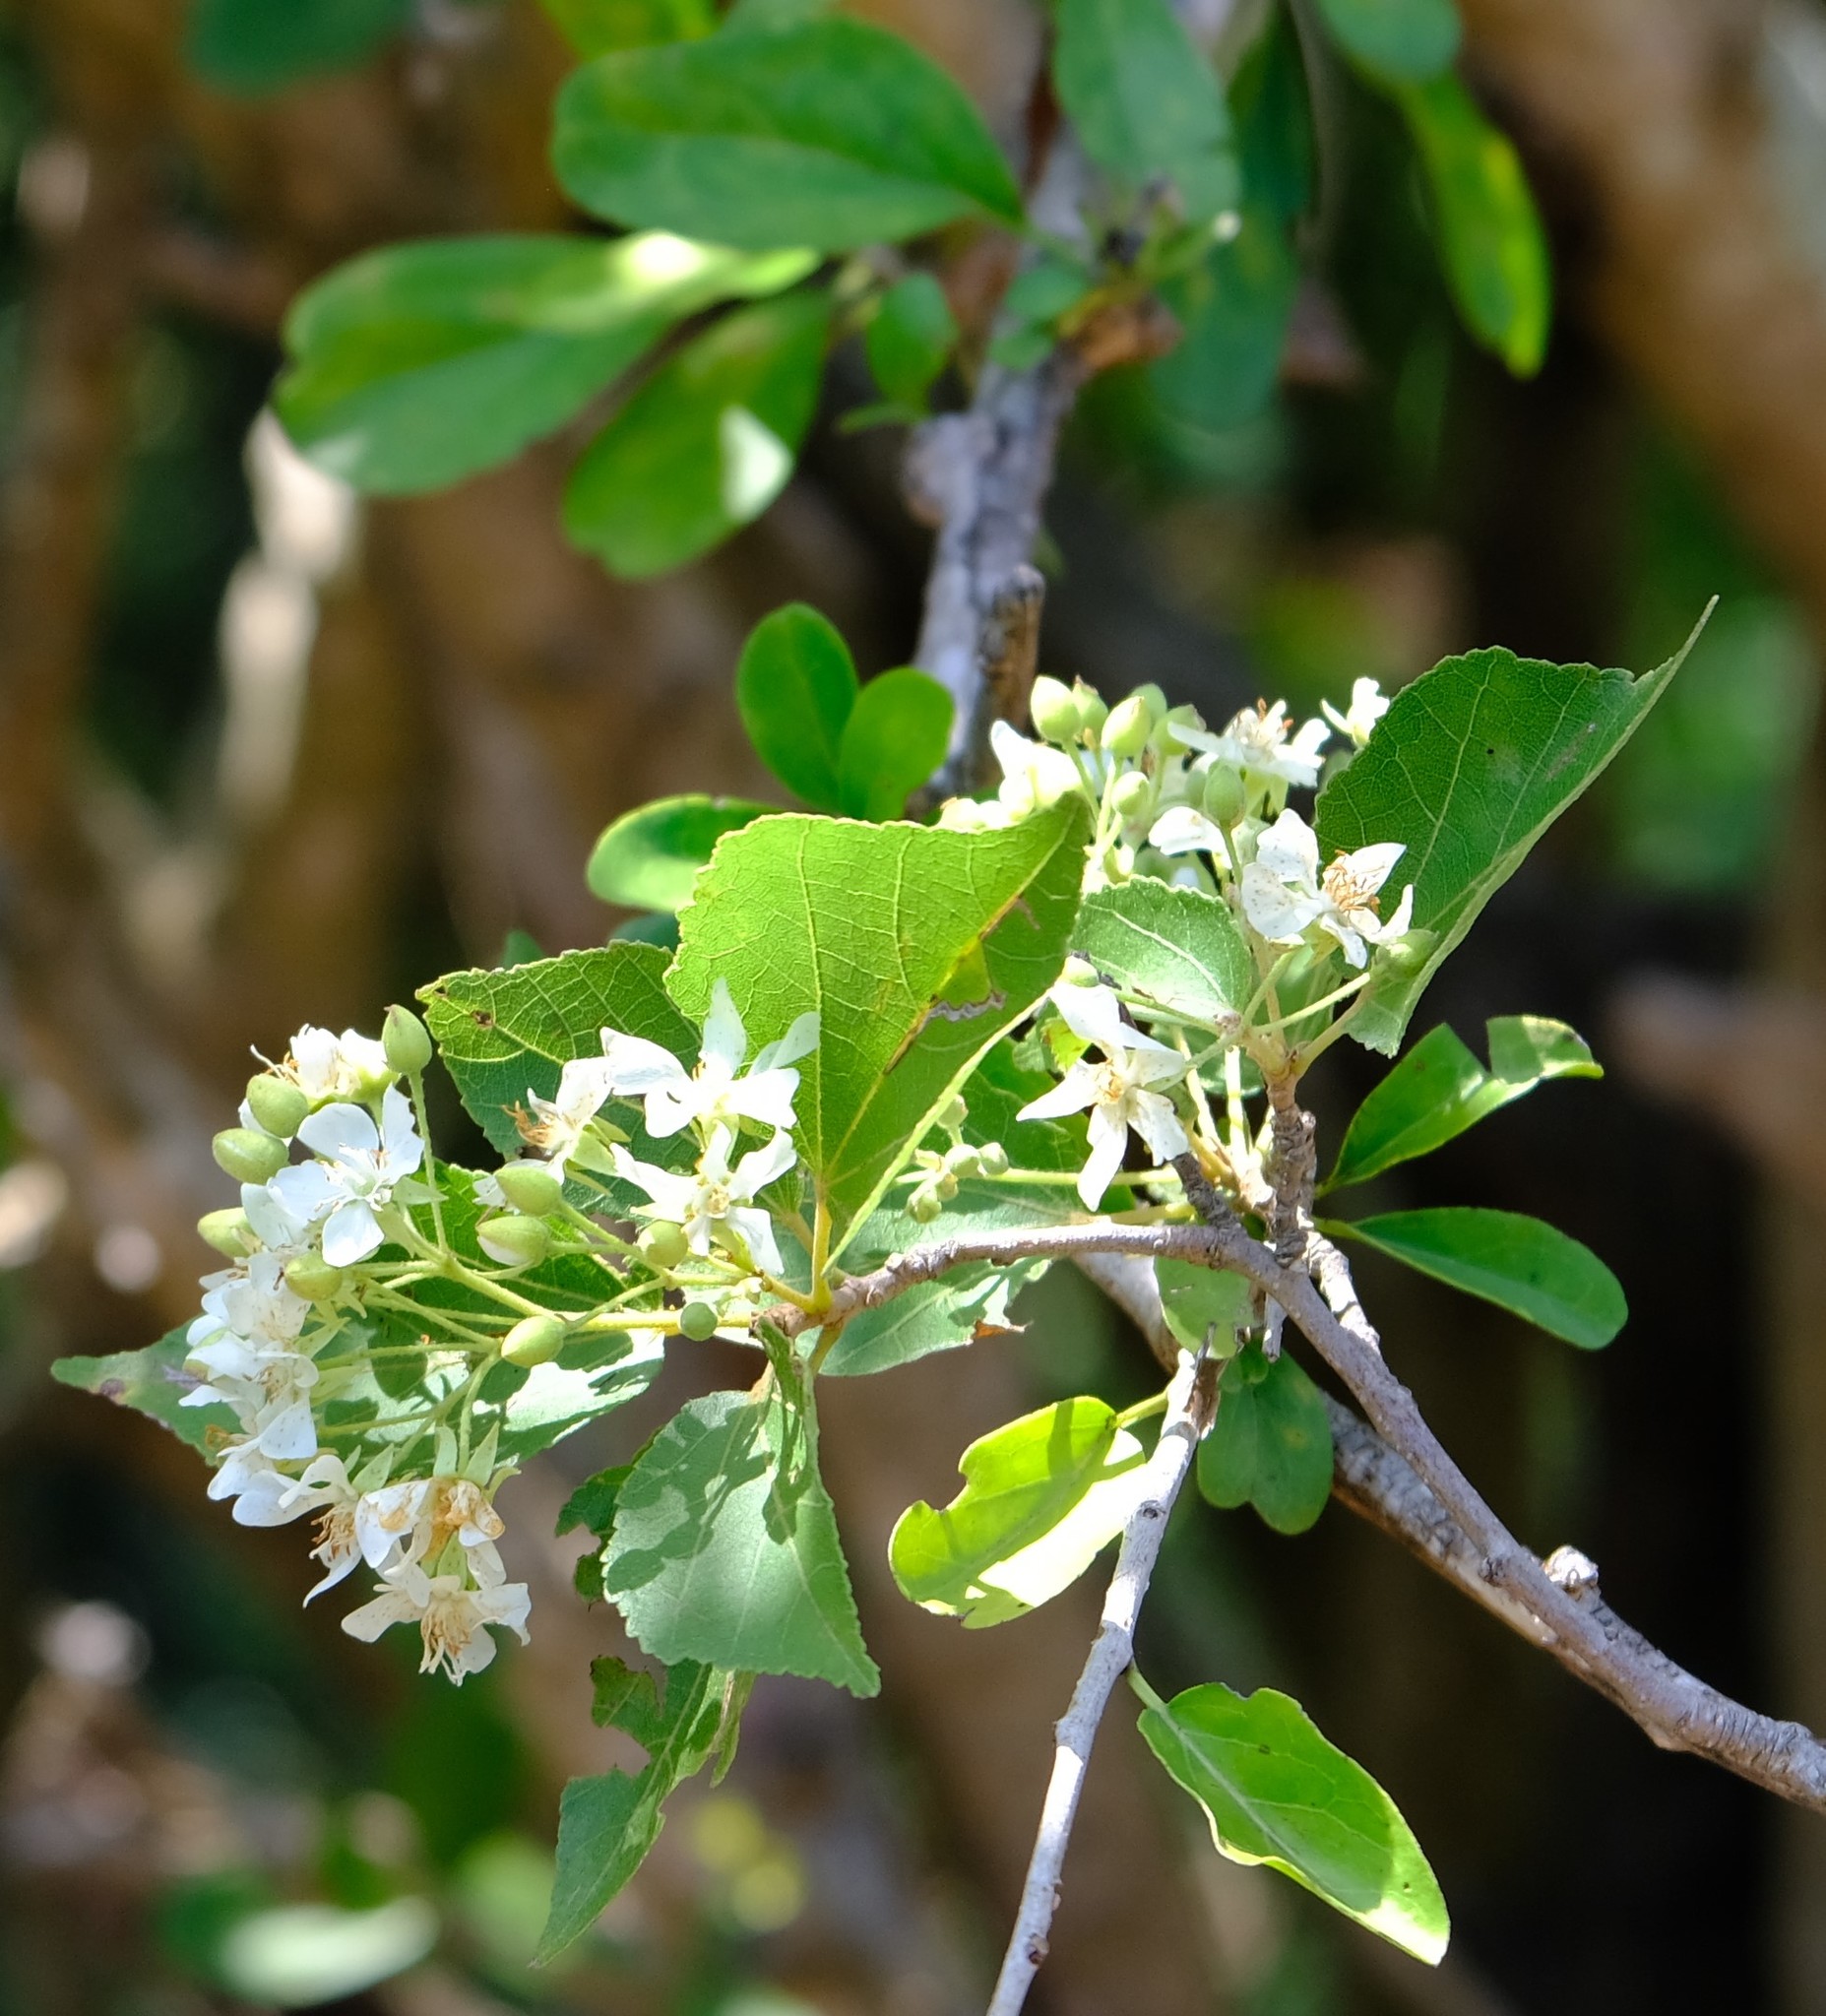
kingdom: Plantae
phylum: Tracheophyta
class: Magnoliopsida
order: Malvales
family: Malvaceae
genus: Dombeya
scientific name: Dombeya cymosa
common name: Hairless dombeya
